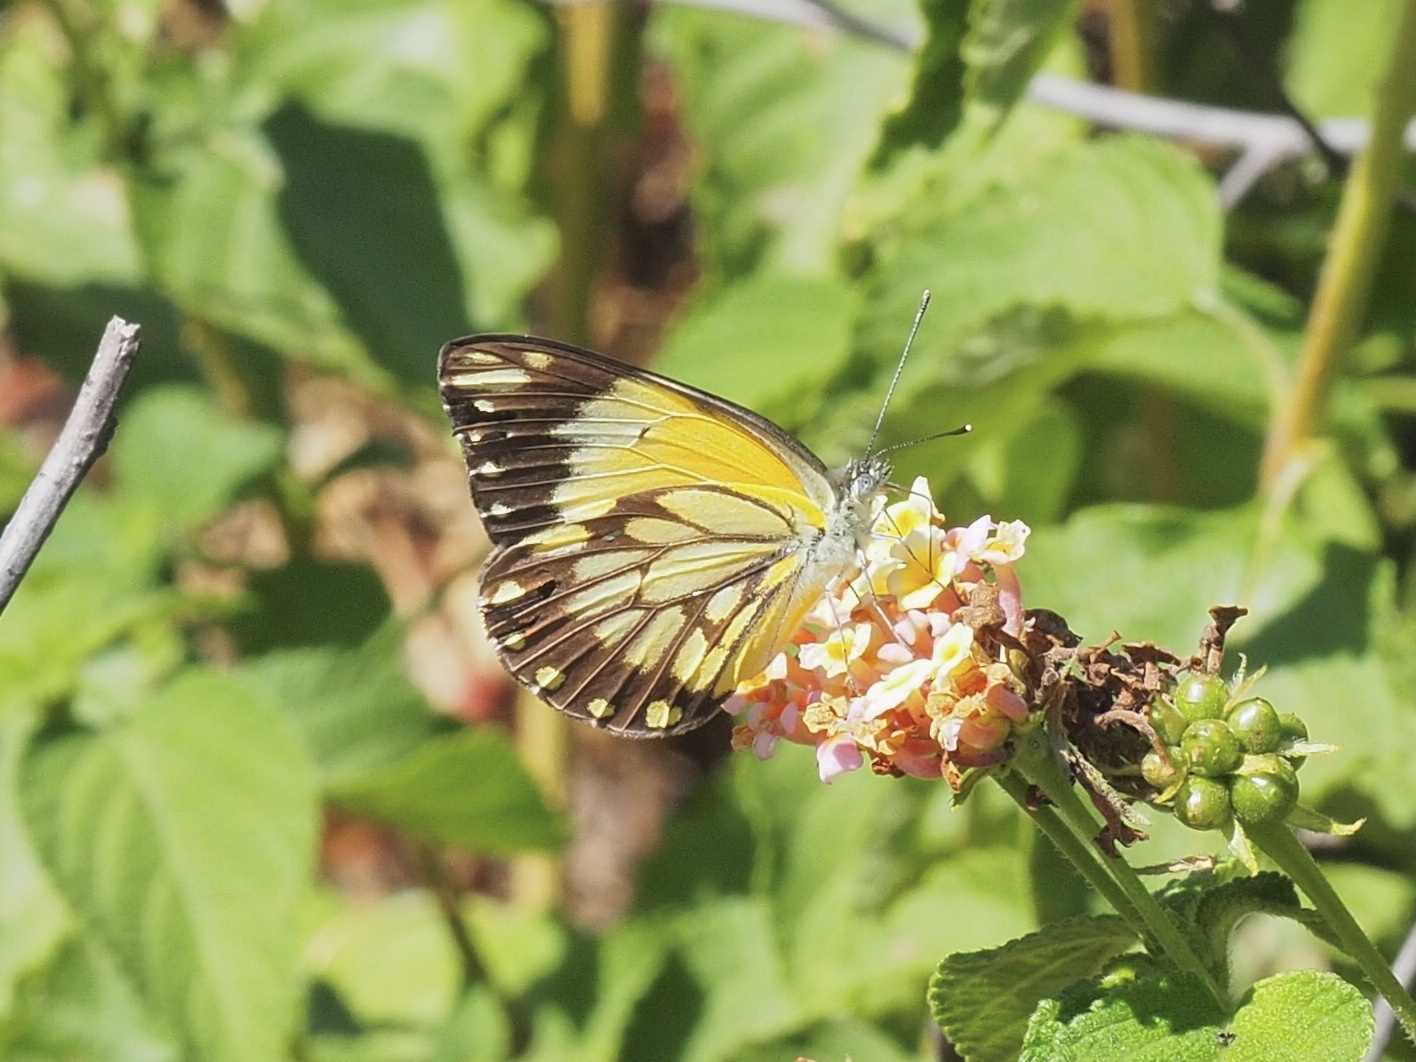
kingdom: Animalia
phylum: Arthropoda
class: Insecta
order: Lepidoptera
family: Pieridae
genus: Belenois
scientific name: Belenois creona
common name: African caper white
